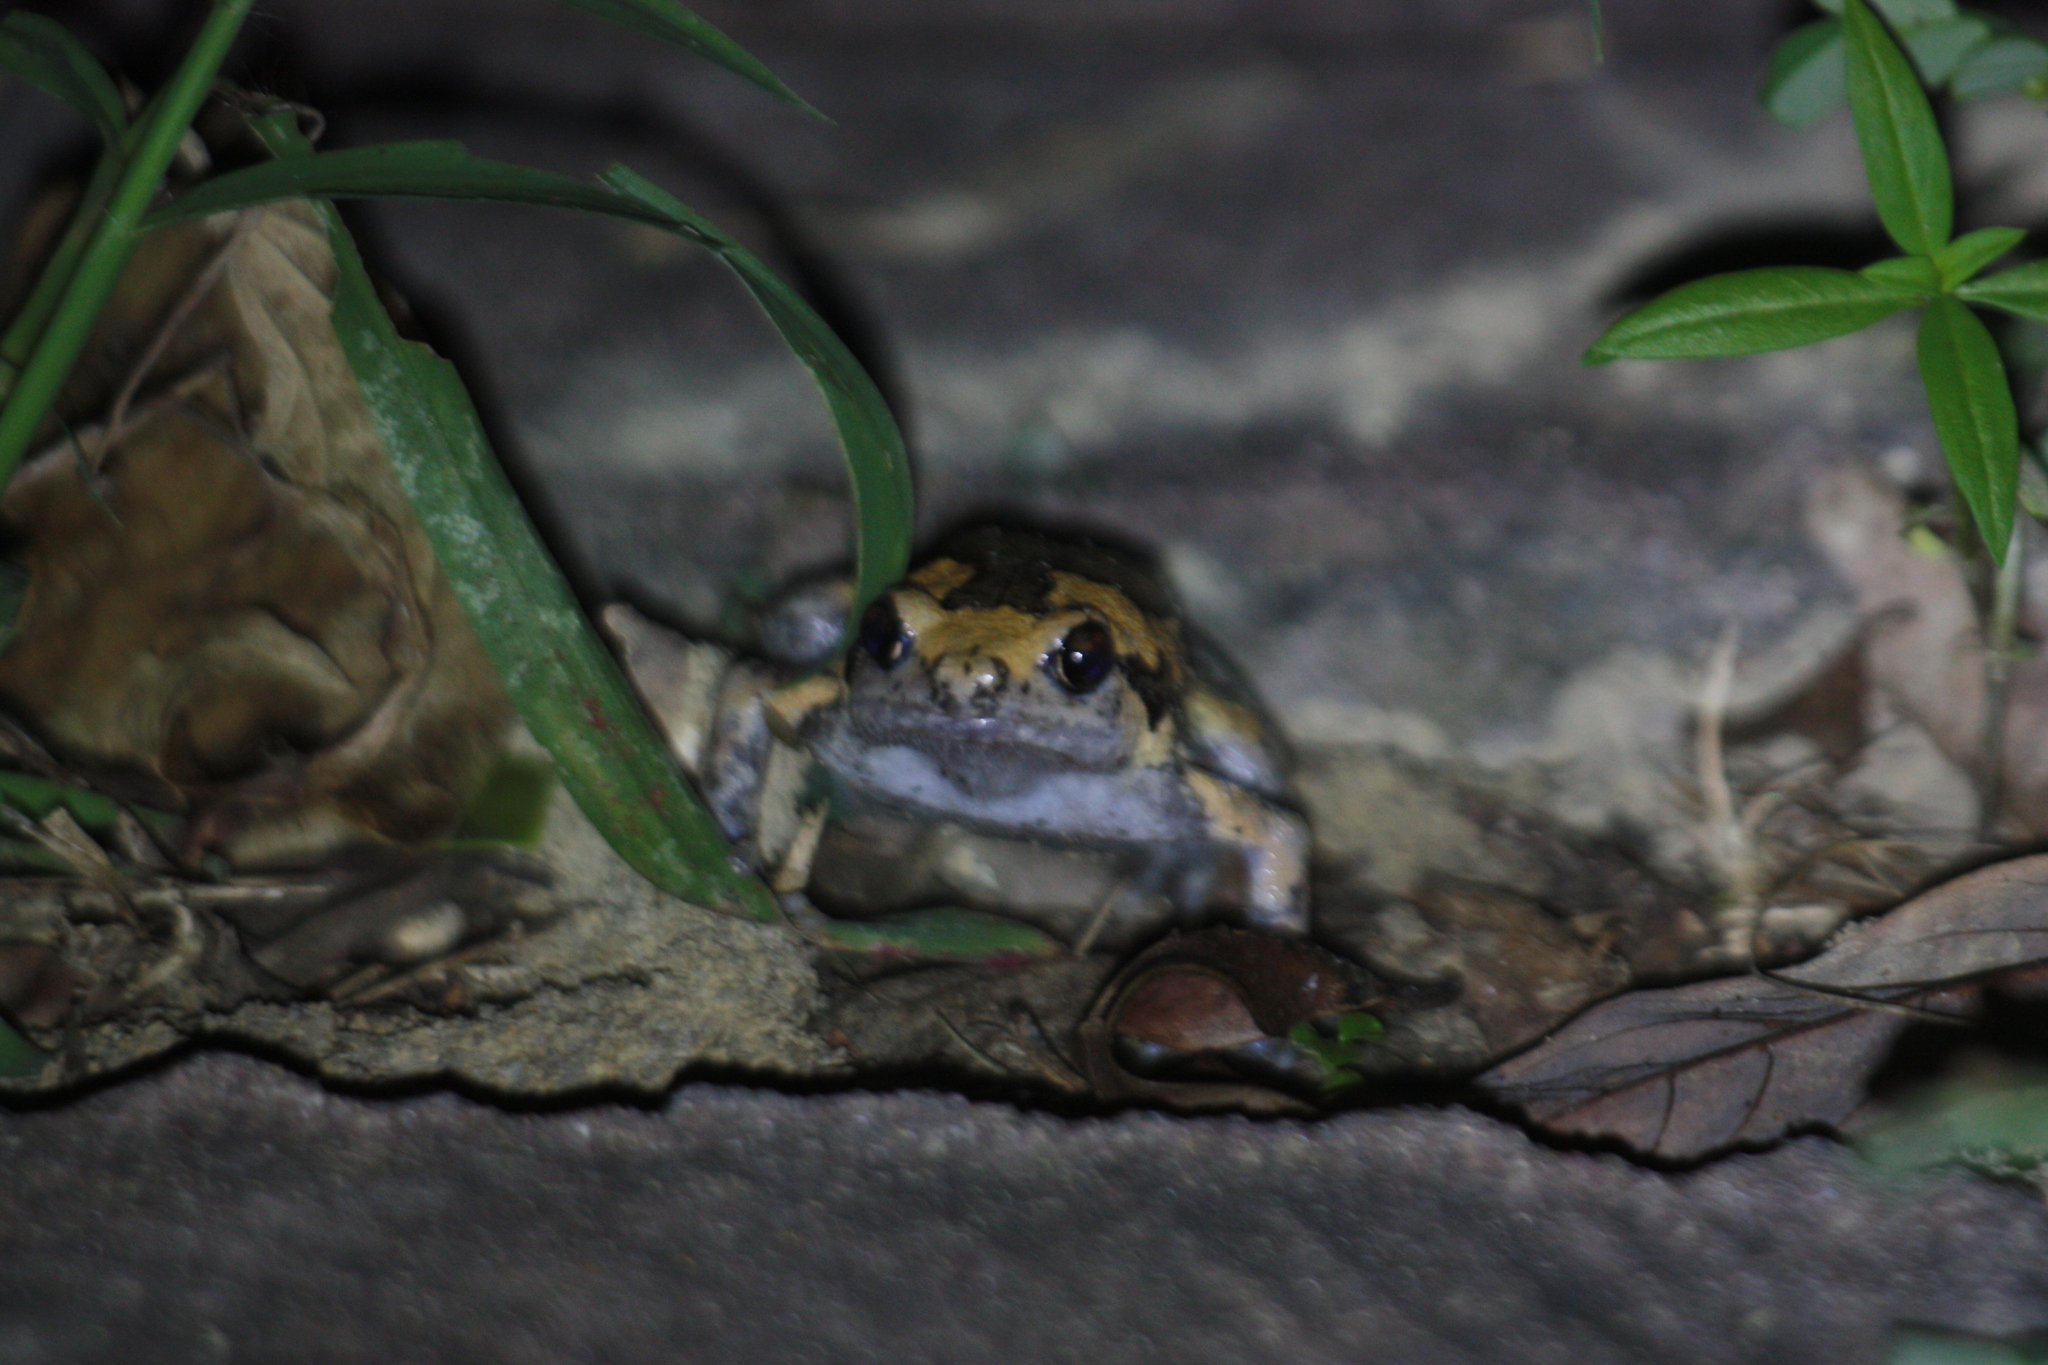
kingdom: Animalia
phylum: Chordata
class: Amphibia
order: Anura
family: Microhylidae
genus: Kaloula
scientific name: Kaloula pulchra
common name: Common,banded bullfrog
